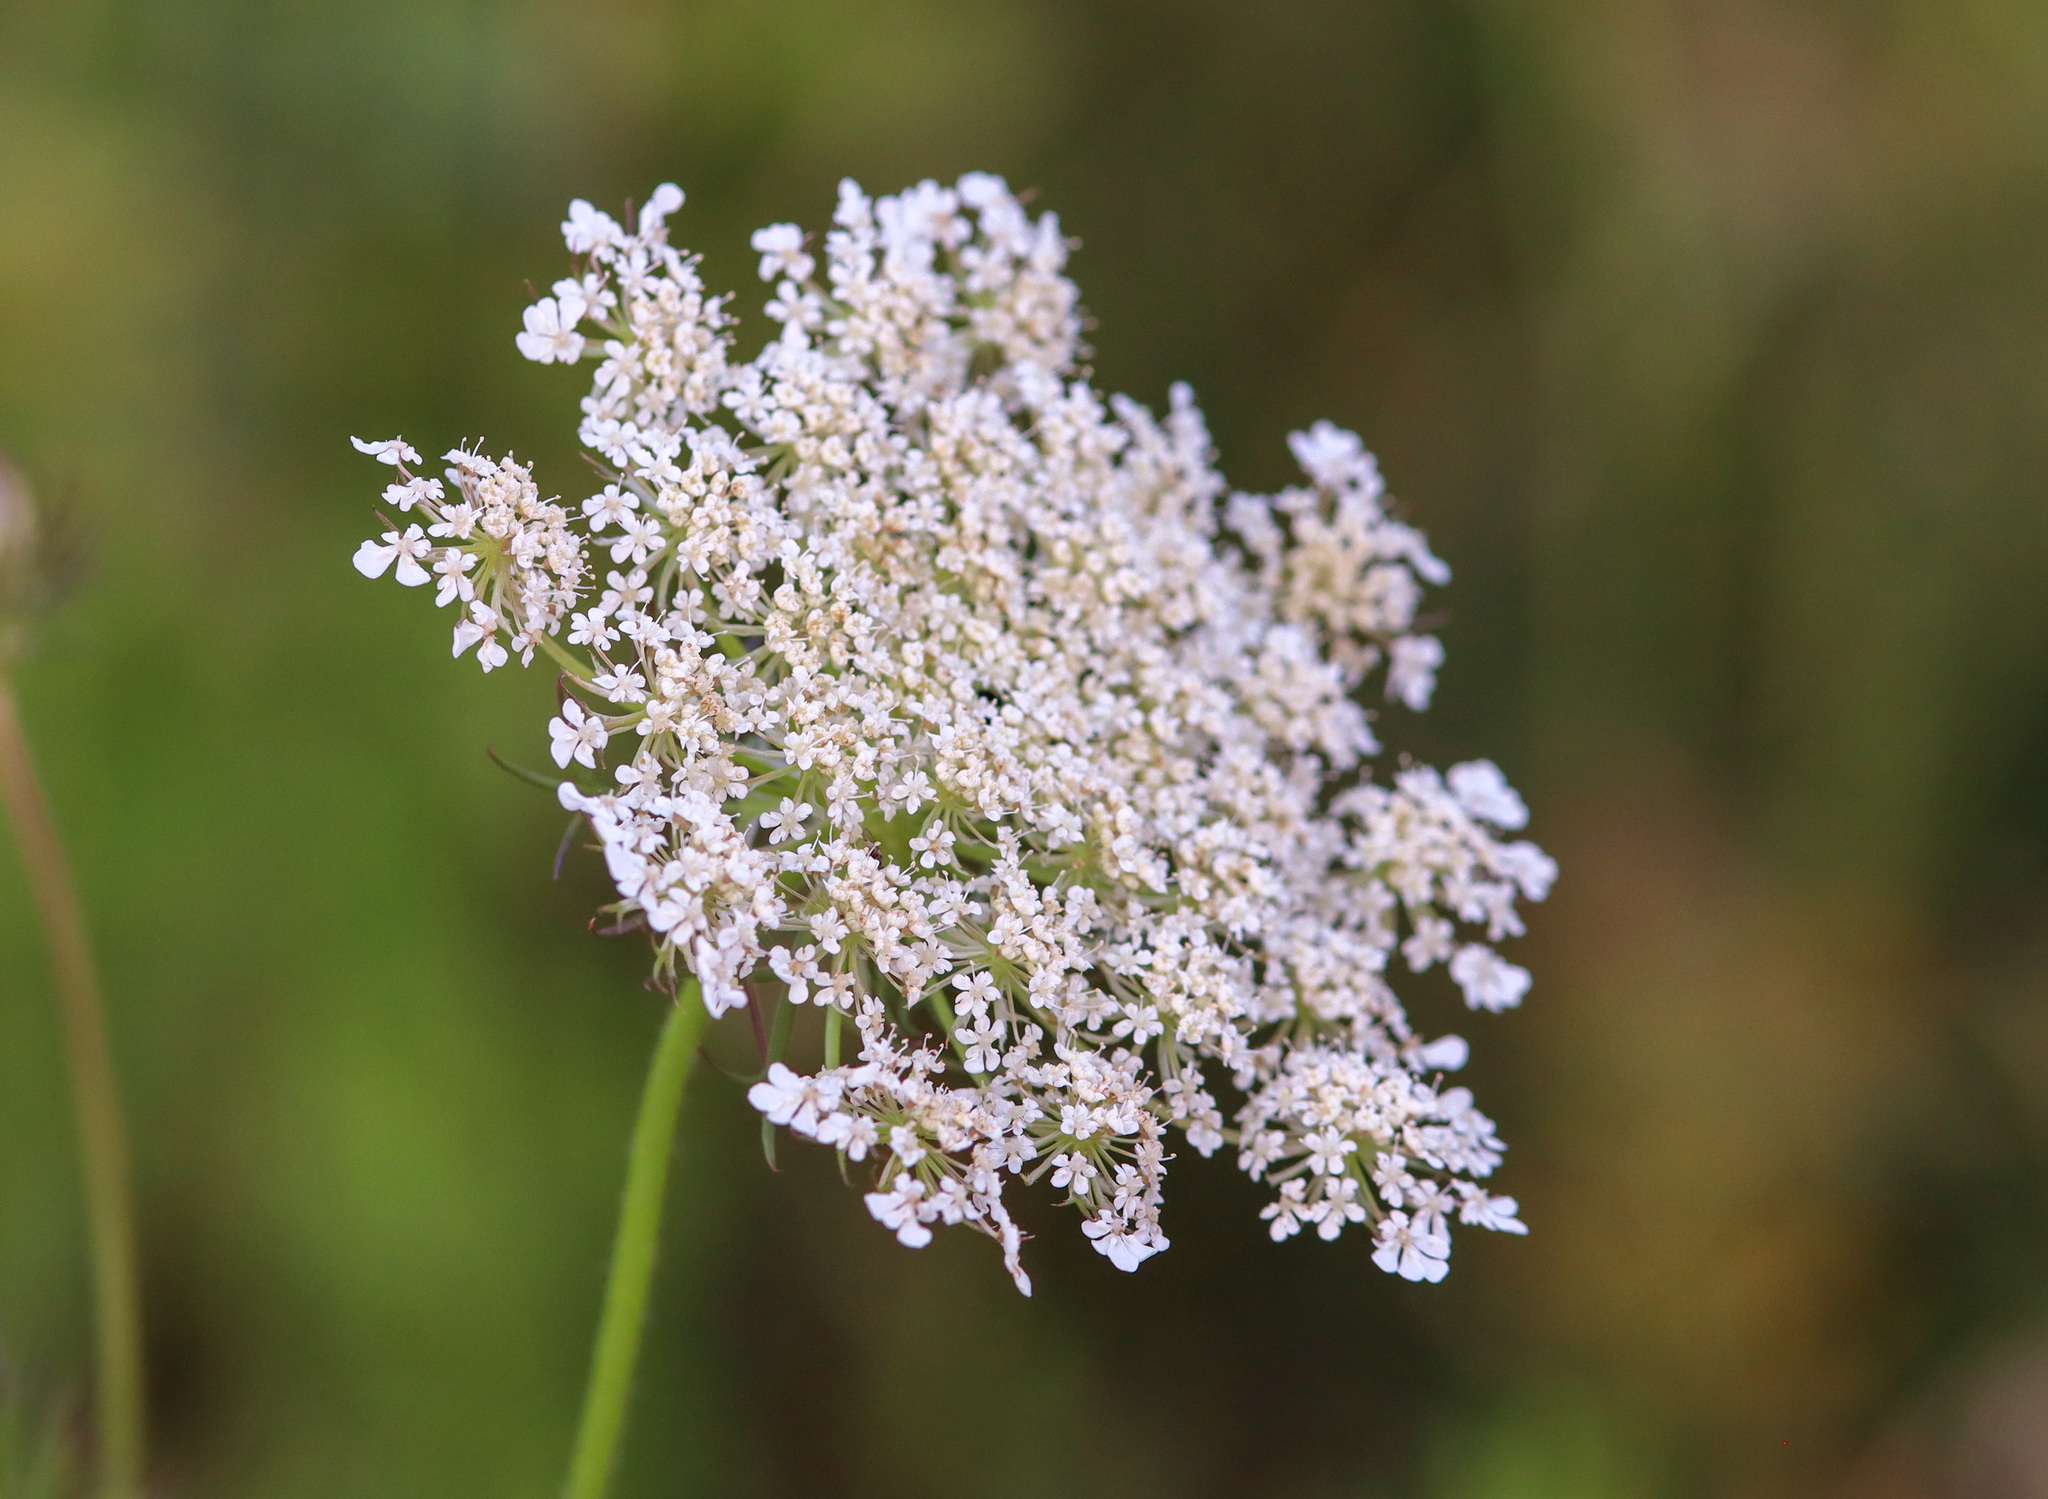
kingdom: Plantae
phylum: Tracheophyta
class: Magnoliopsida
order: Apiales
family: Apiaceae
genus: Daucus
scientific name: Daucus carota
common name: Wild carrot
